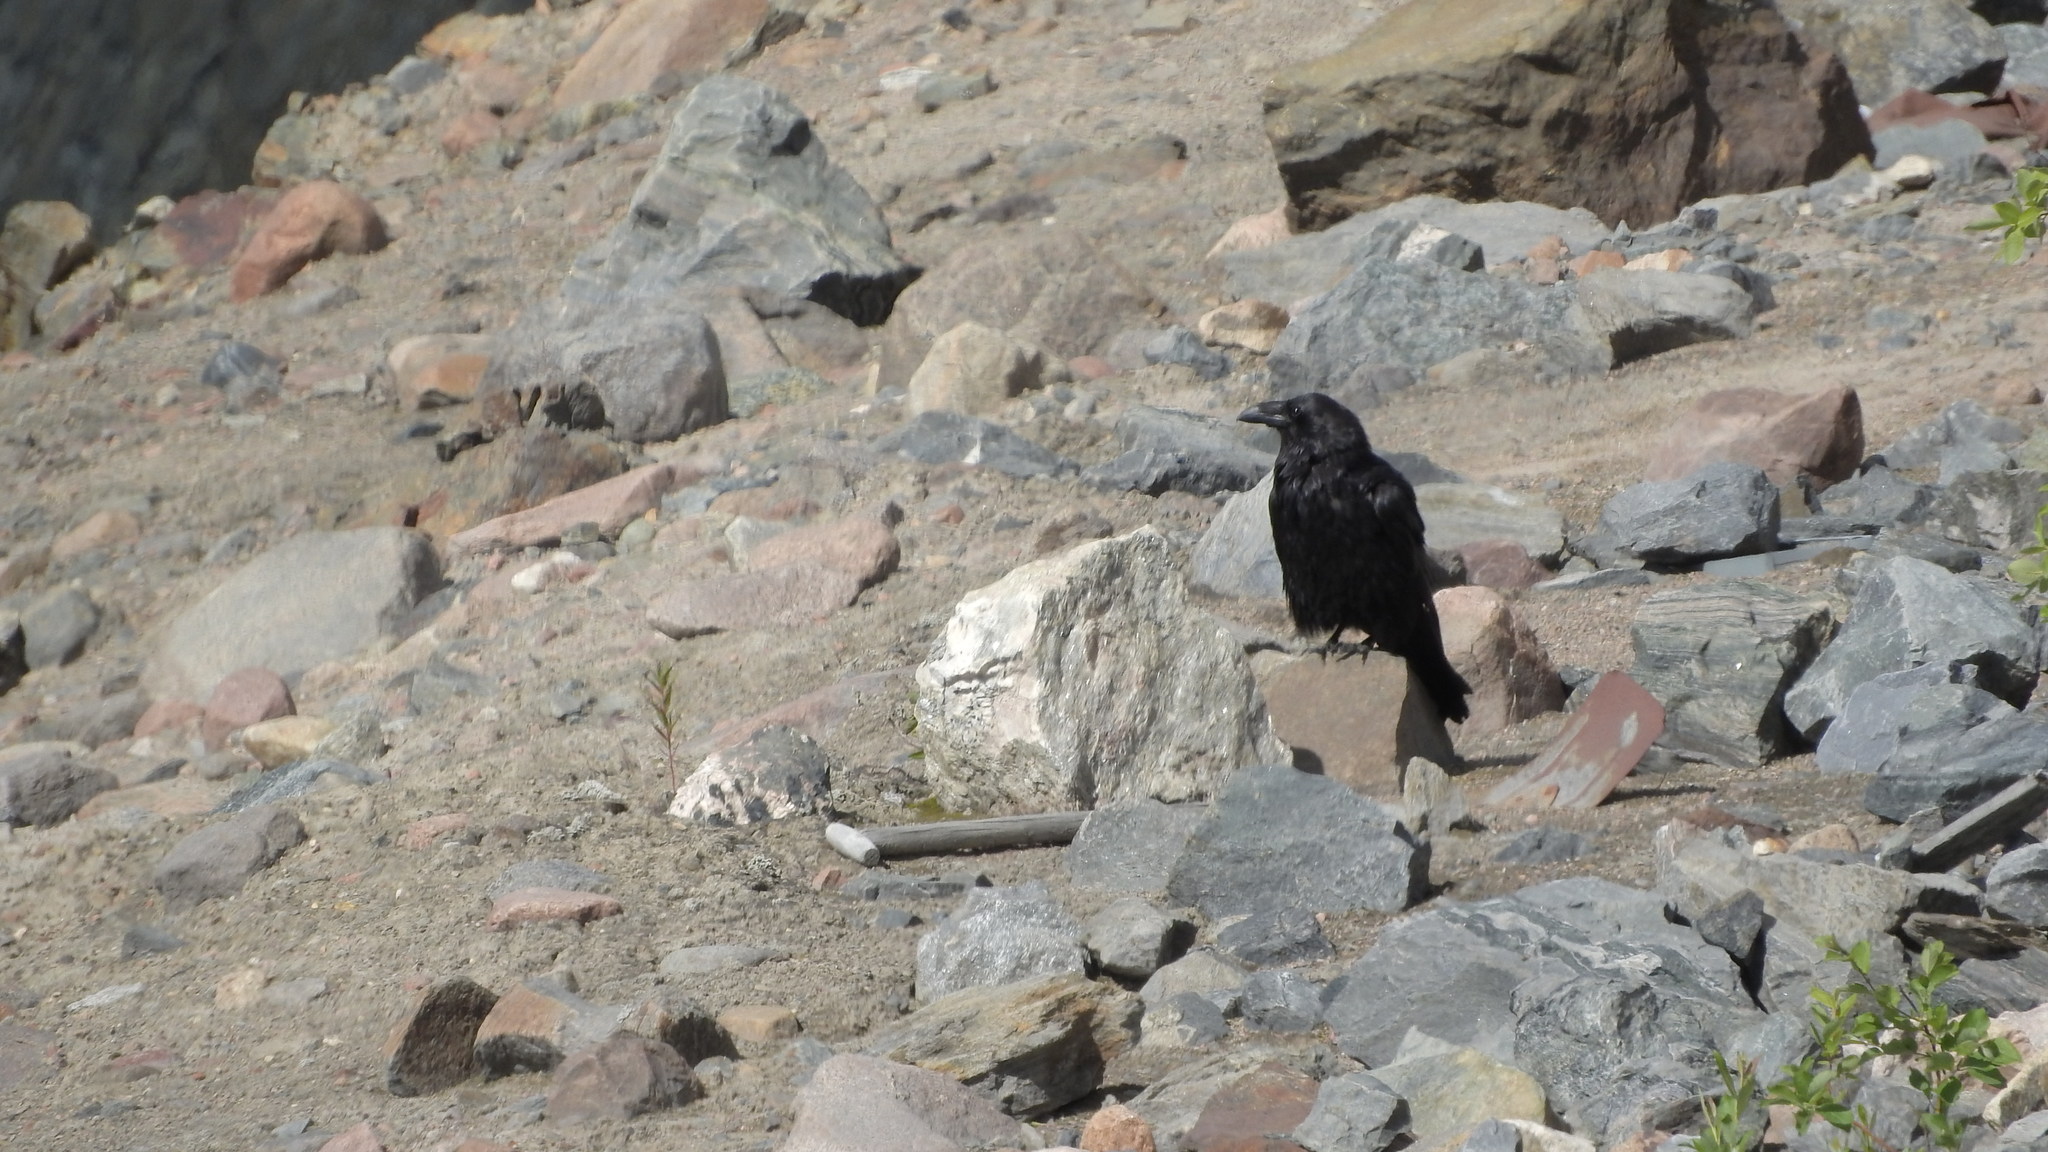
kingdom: Animalia
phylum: Chordata
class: Aves
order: Passeriformes
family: Corvidae
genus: Corvus
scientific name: Corvus corax
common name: Common raven
